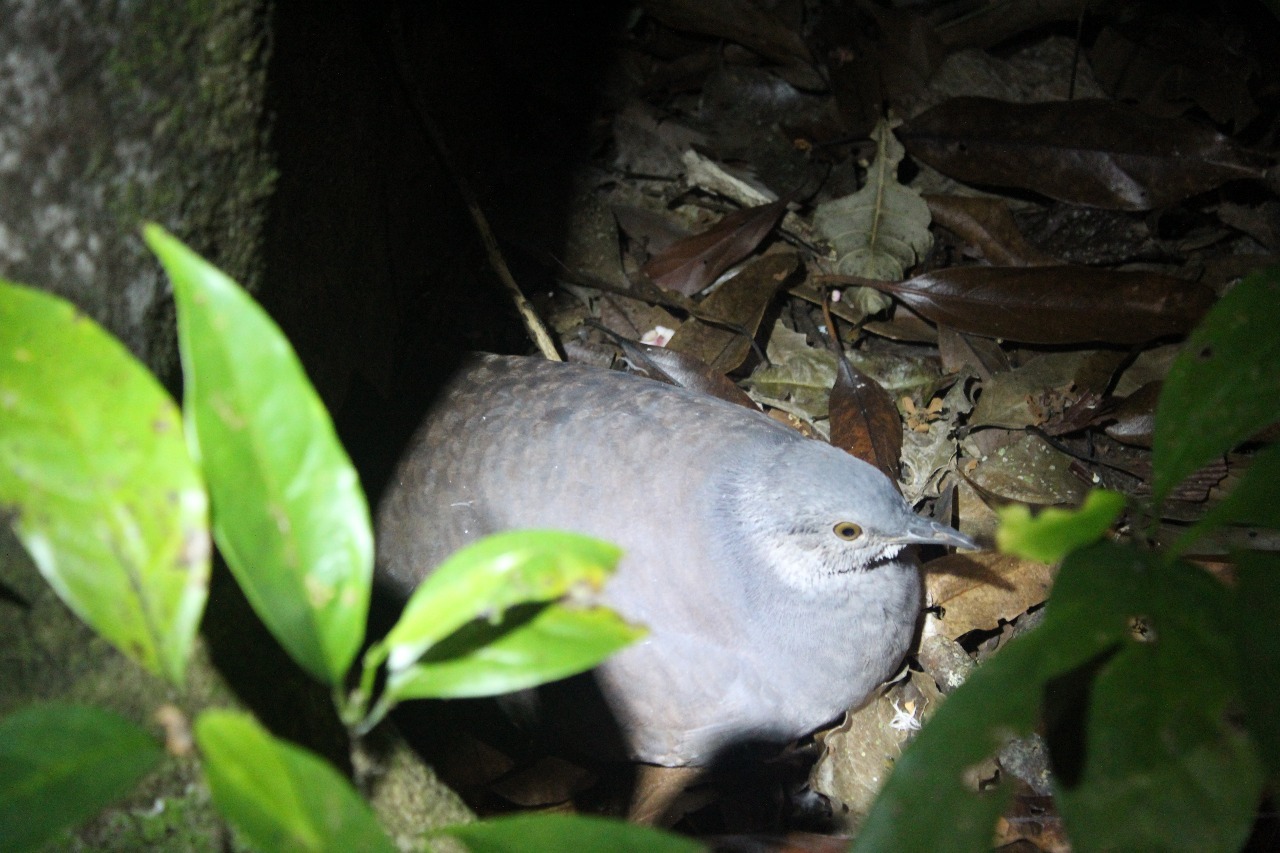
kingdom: Animalia
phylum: Chordata
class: Aves
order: Tinamiformes
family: Tinamidae
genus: Crypturellus
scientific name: Crypturellus boucardi
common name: Slaty-breasted tinamou
